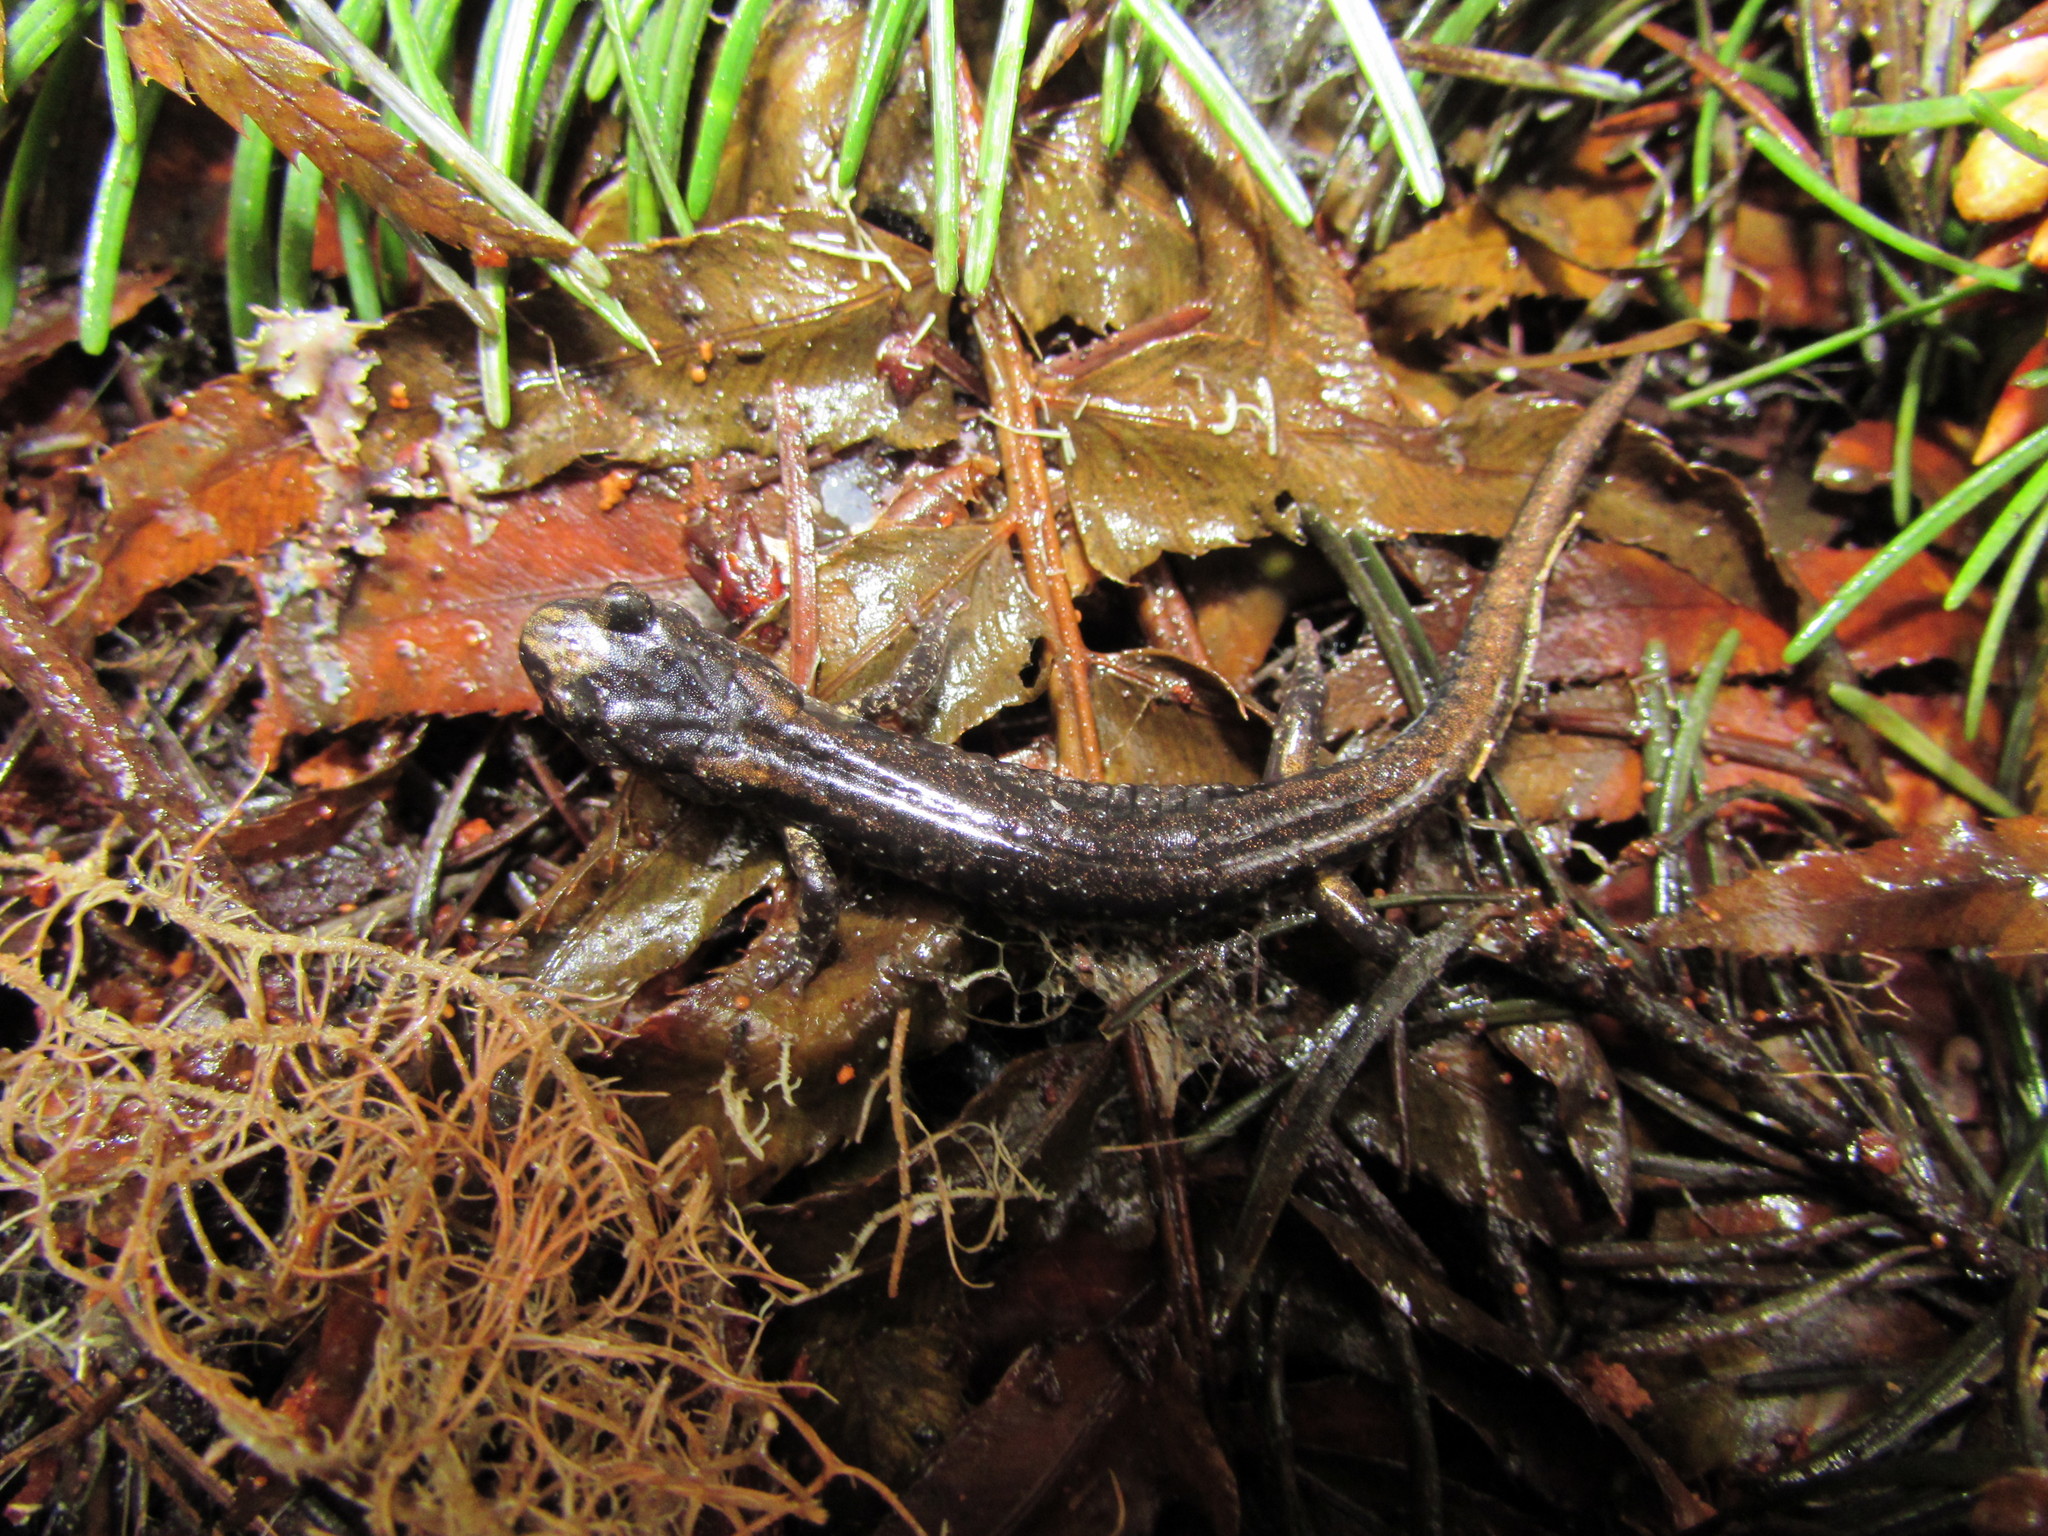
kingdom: Animalia
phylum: Chordata
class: Amphibia
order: Caudata
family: Plethodontidae
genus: Aneides
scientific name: Aneides ferreus
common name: Clouded salamander
